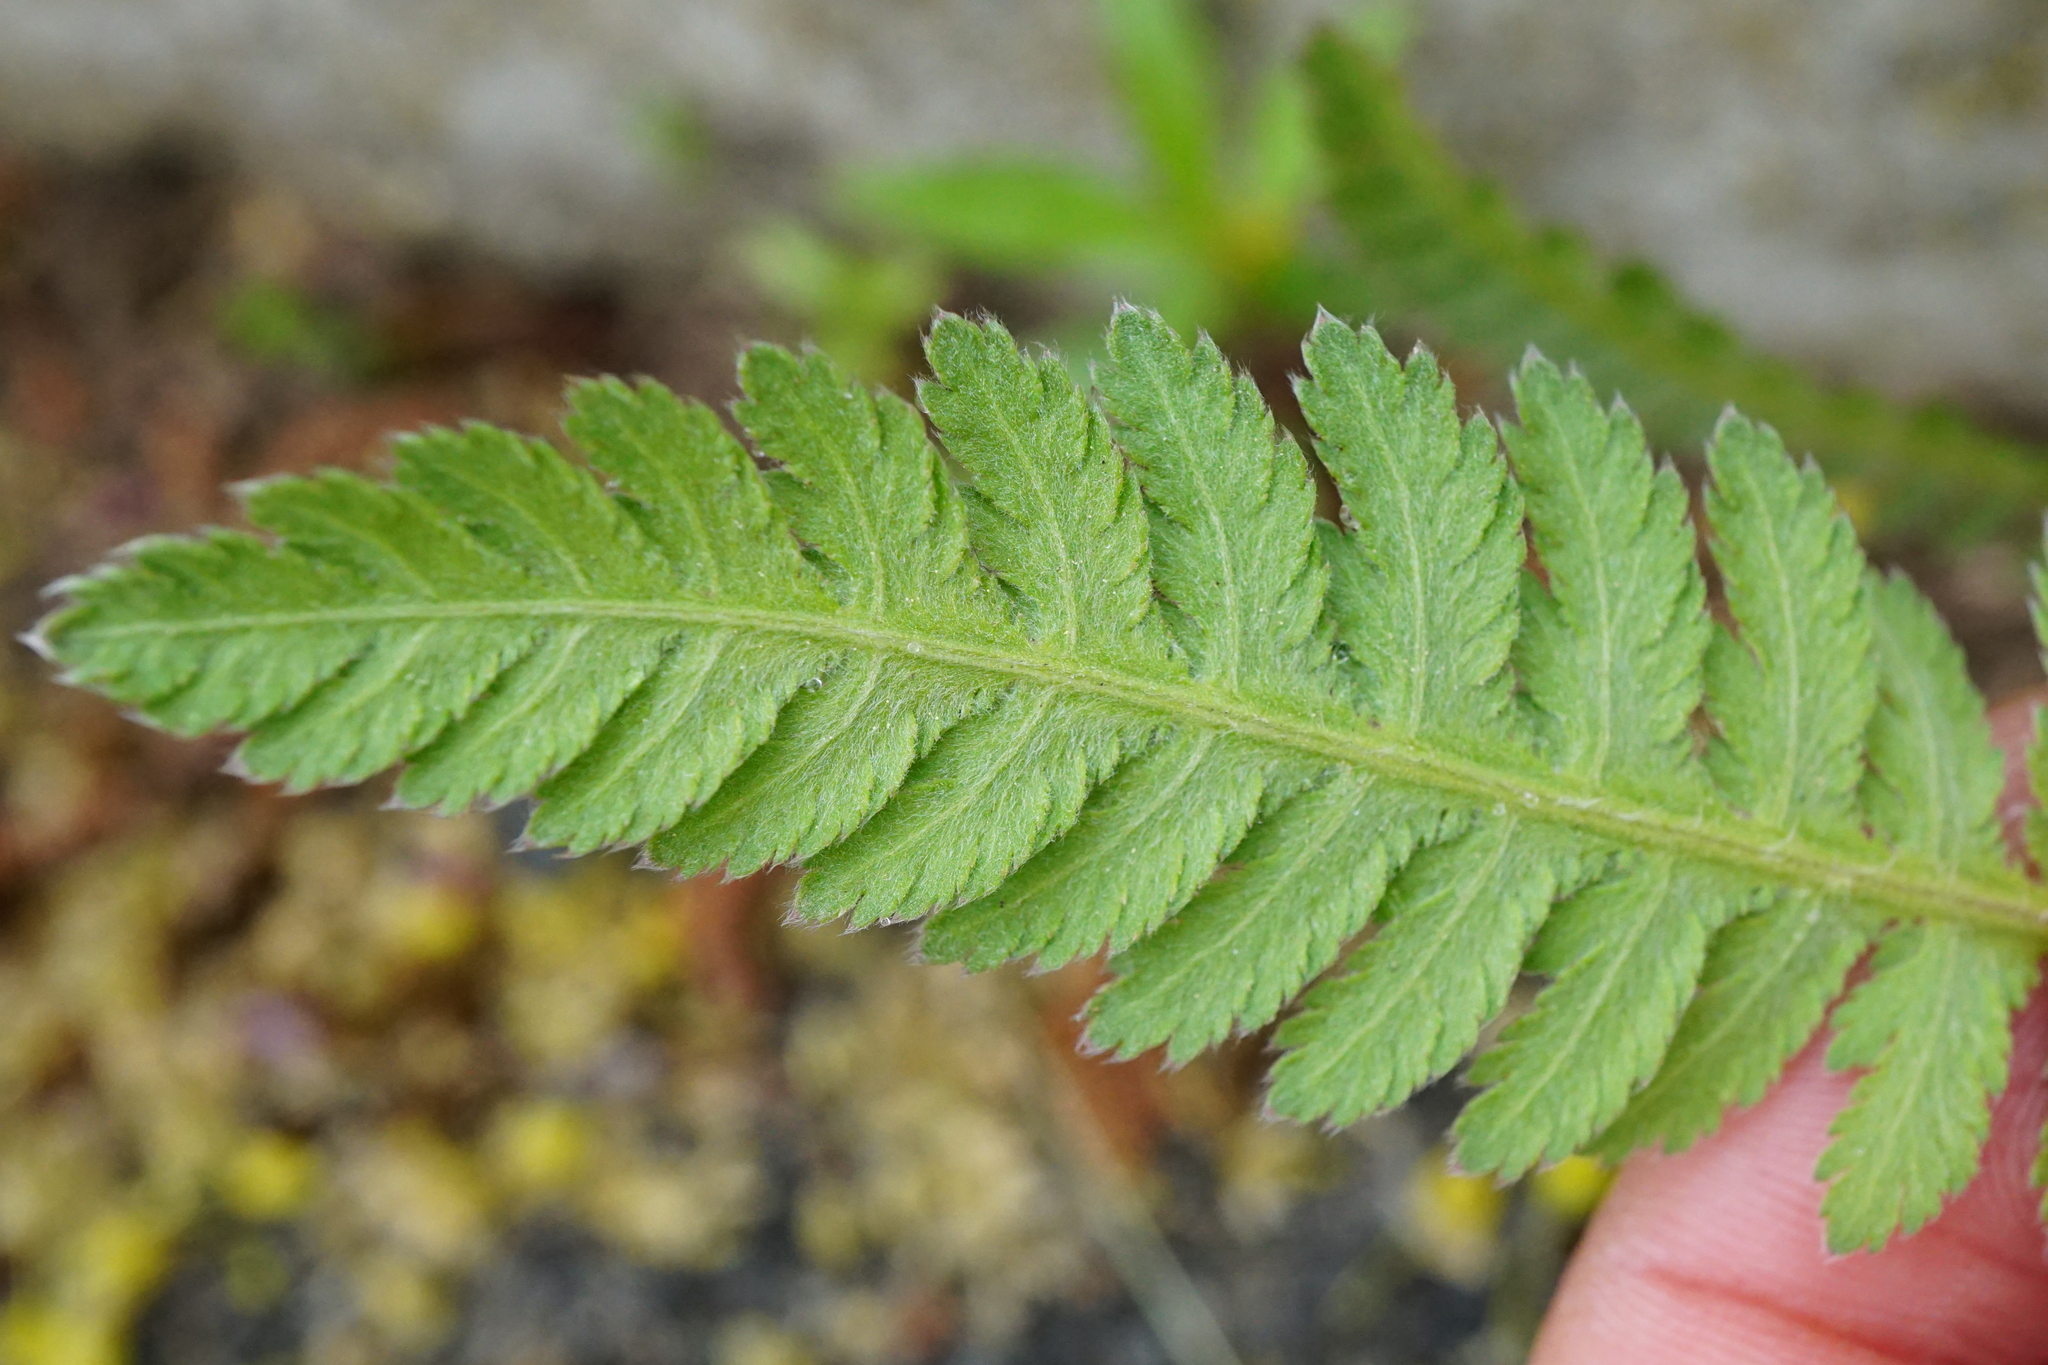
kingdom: Plantae
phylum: Tracheophyta
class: Magnoliopsida
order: Asterales
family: Asteraceae
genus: Achillea
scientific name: Achillea filipendulina
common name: Fernleaf yarrow
